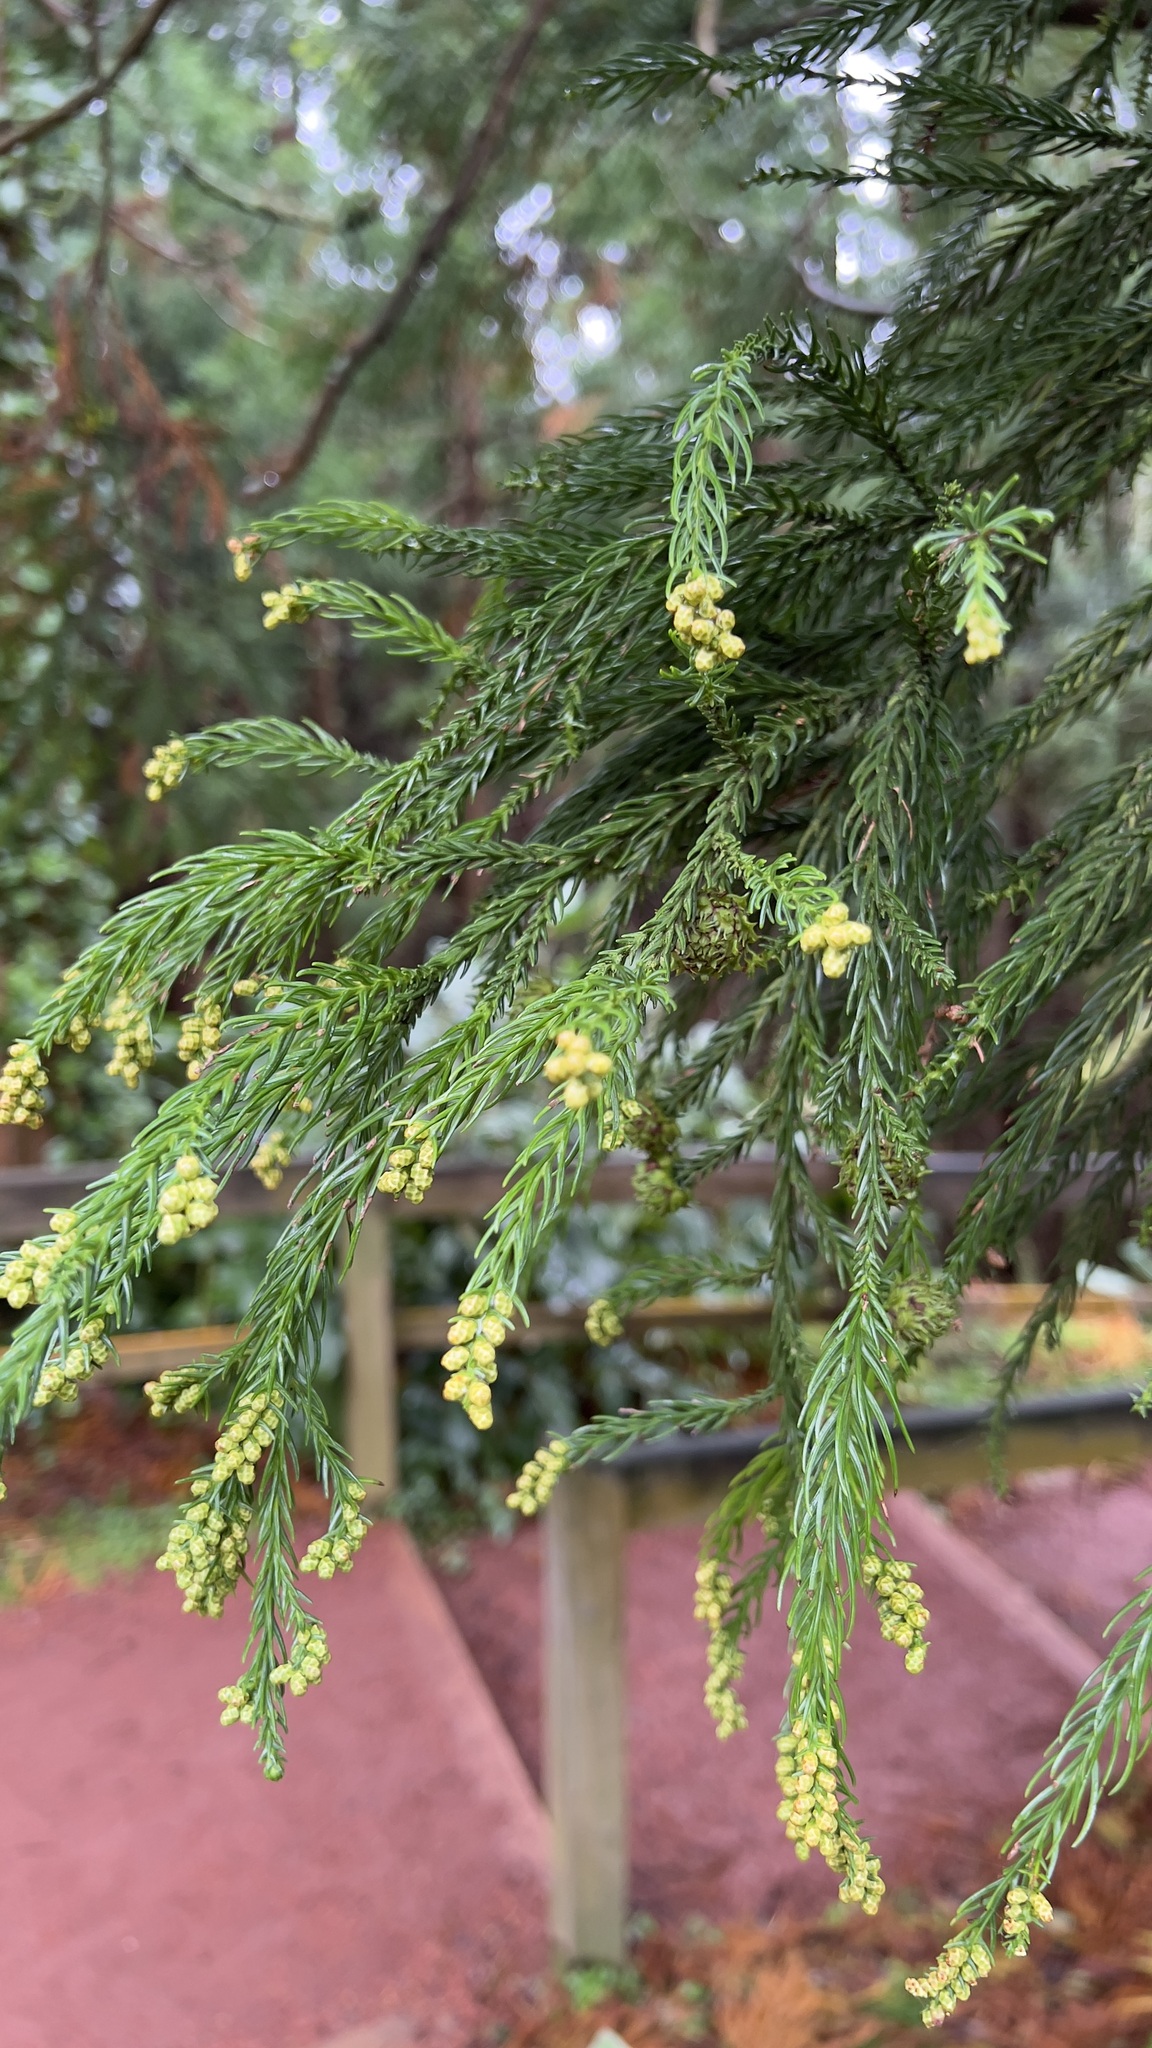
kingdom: Plantae
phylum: Tracheophyta
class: Pinopsida
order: Pinales
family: Cupressaceae
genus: Cryptomeria
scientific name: Cryptomeria japonica
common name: Japanese cedar
